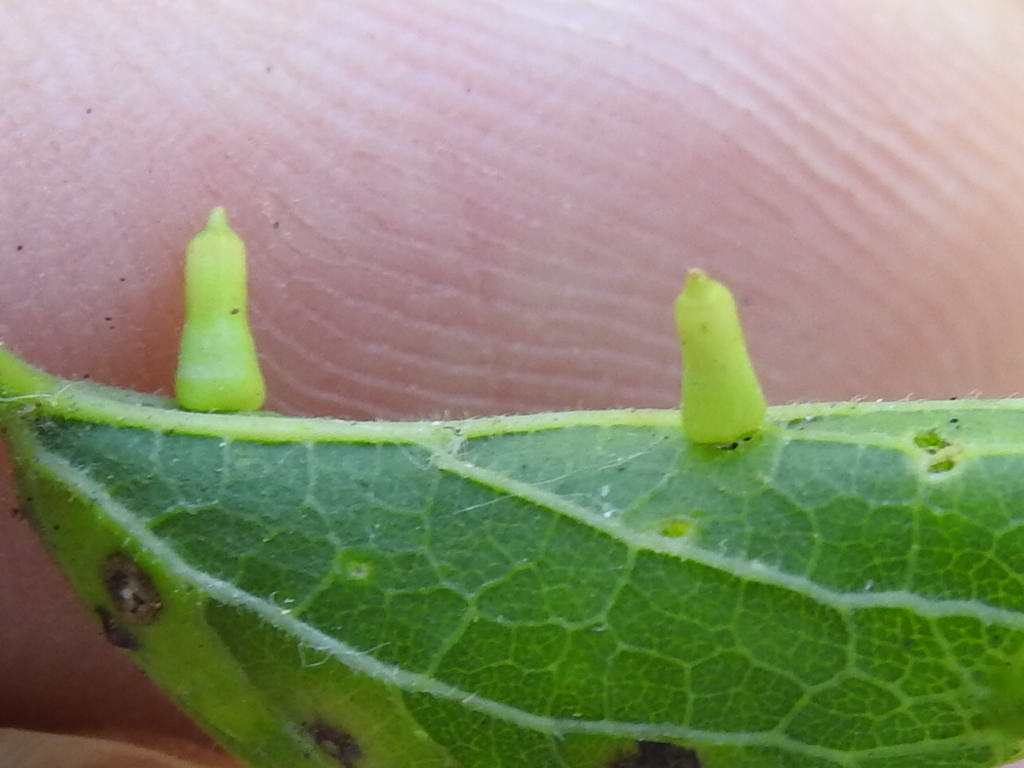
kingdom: Animalia
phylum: Arthropoda
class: Insecta
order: Diptera
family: Cecidomyiidae
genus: Celticecis
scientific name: Celticecis aciculata
